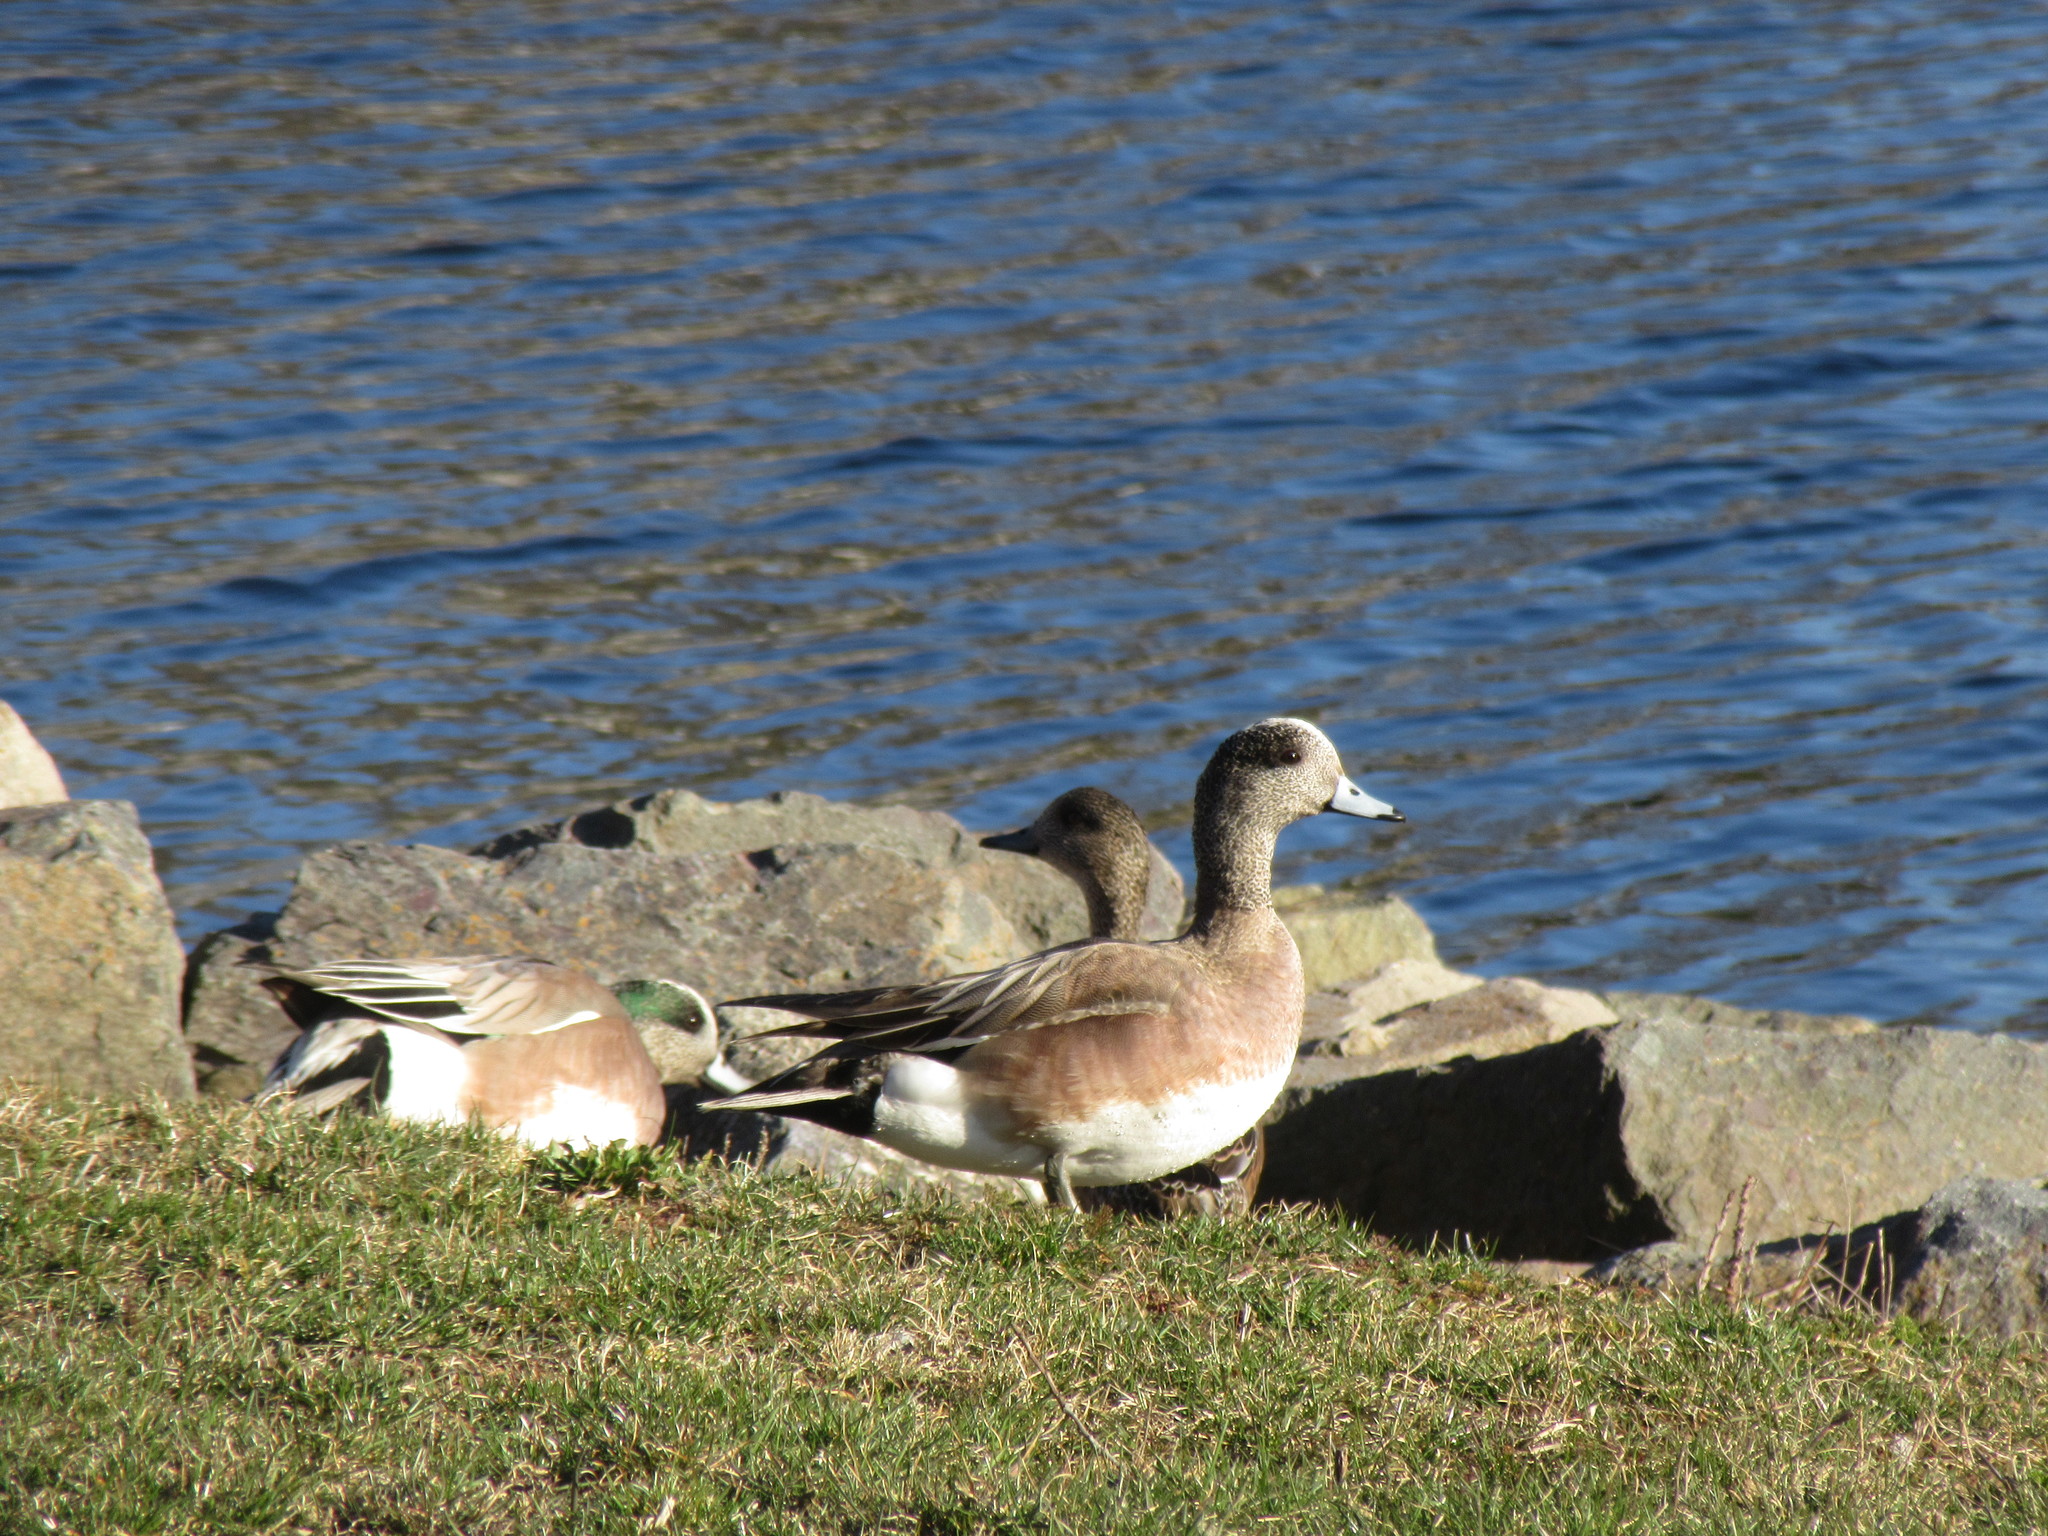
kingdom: Animalia
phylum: Chordata
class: Aves
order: Anseriformes
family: Anatidae
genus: Mareca
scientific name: Mareca americana
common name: American wigeon
